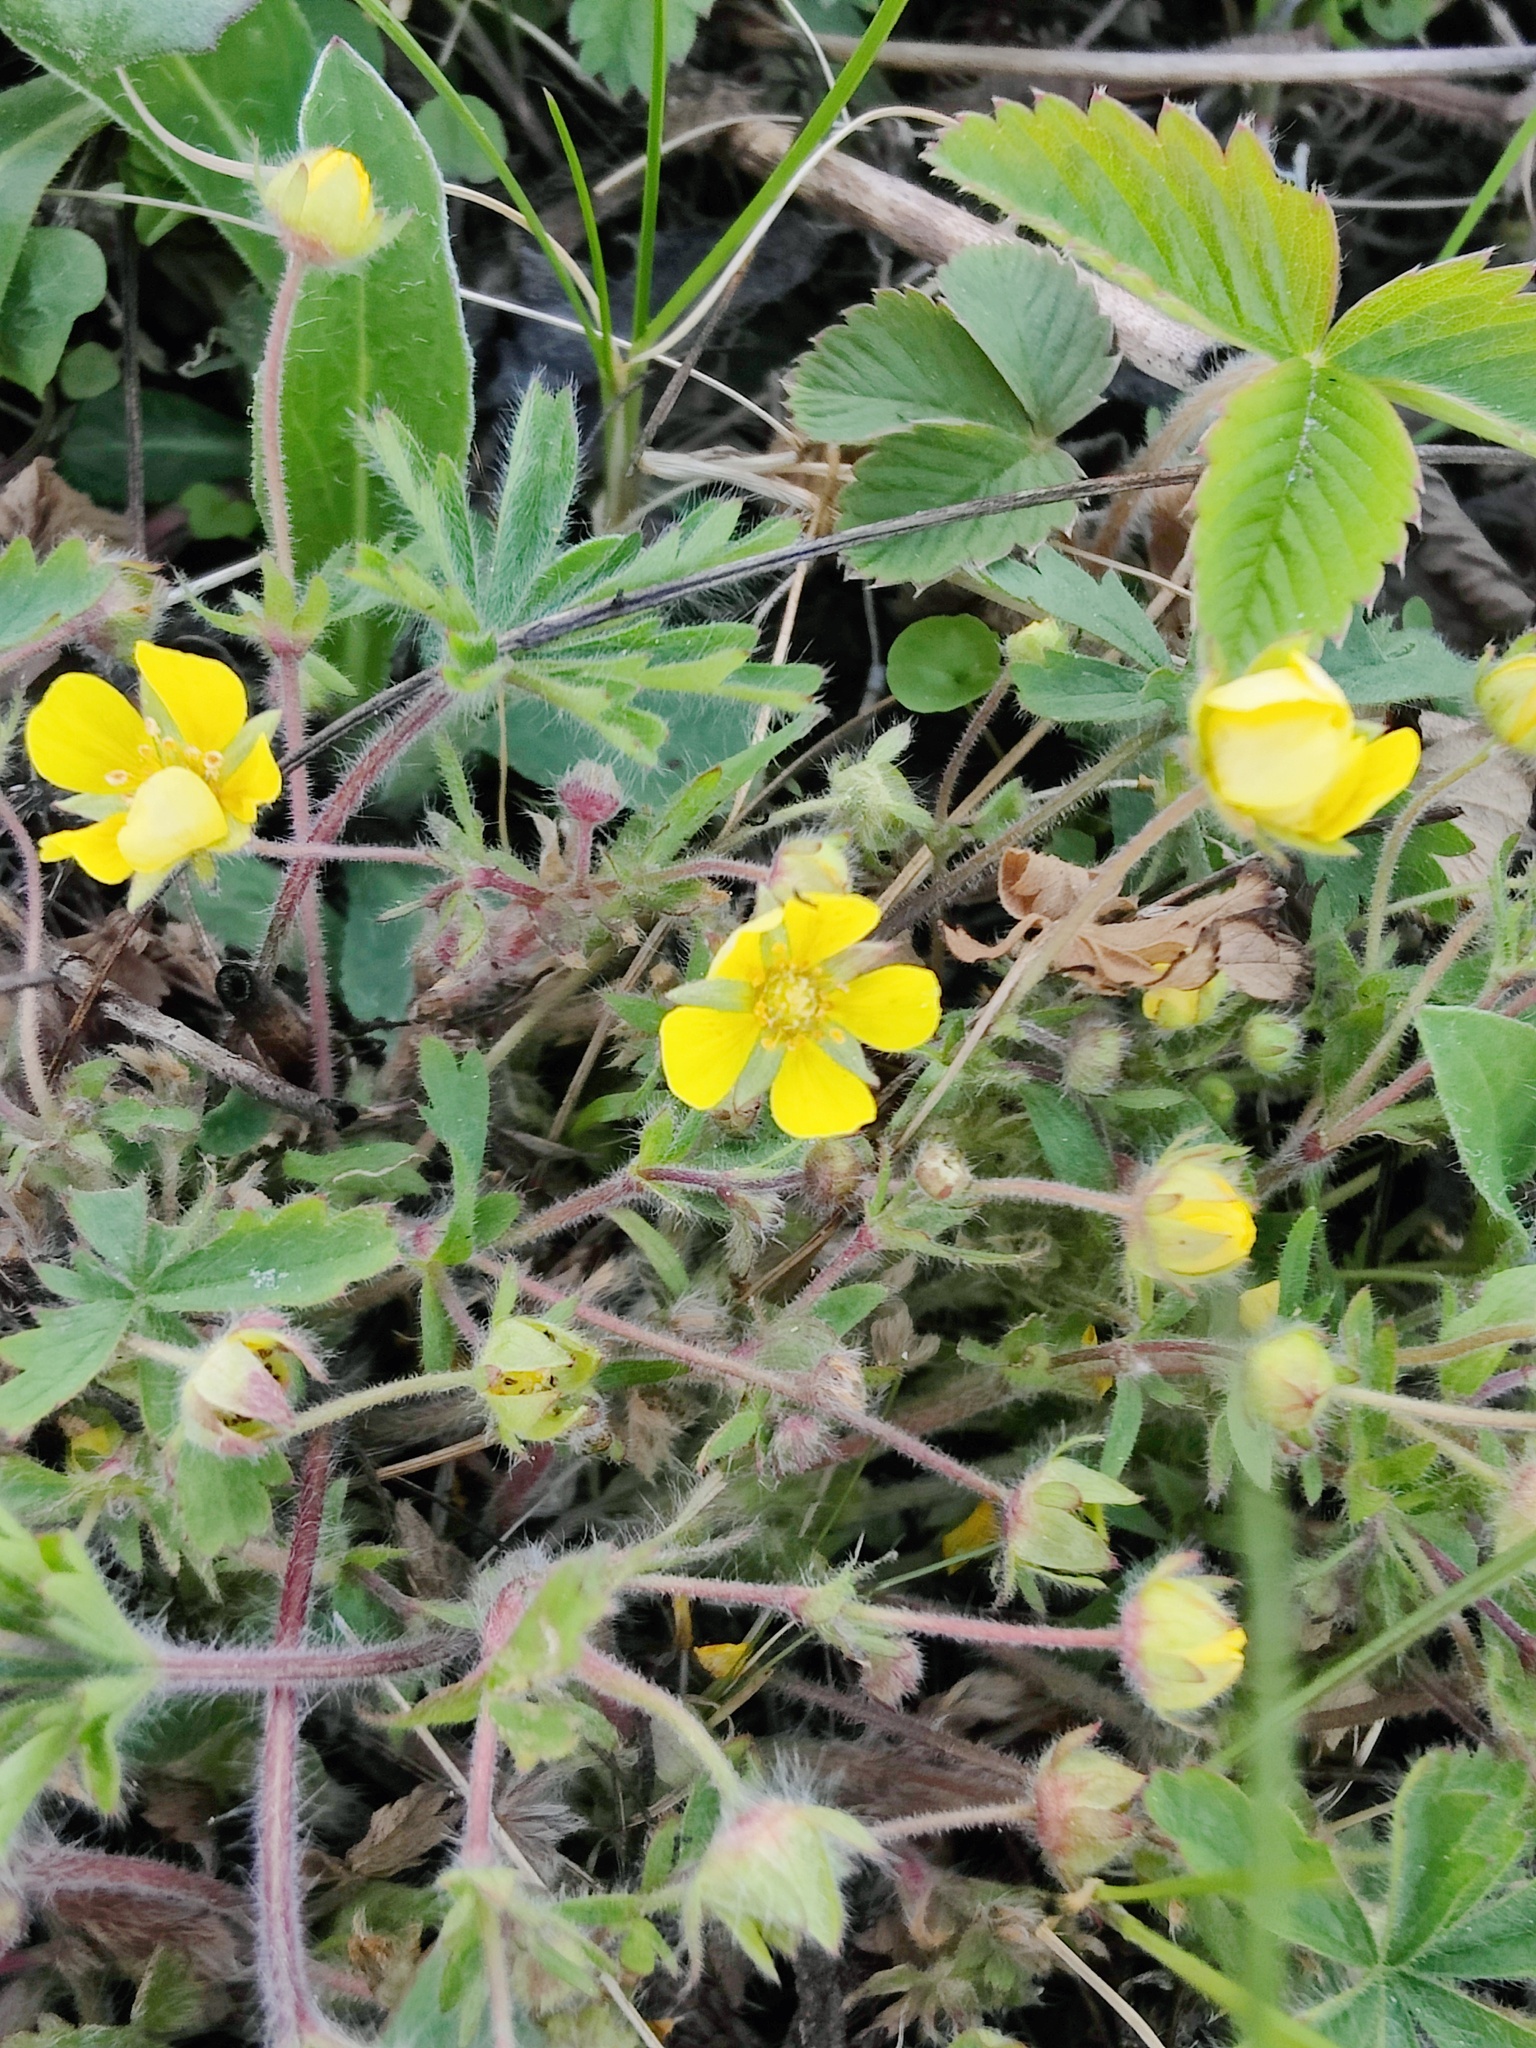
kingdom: Plantae
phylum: Tracheophyta
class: Magnoliopsida
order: Rosales
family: Rosaceae
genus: Potentilla
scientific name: Potentilla humifusa
